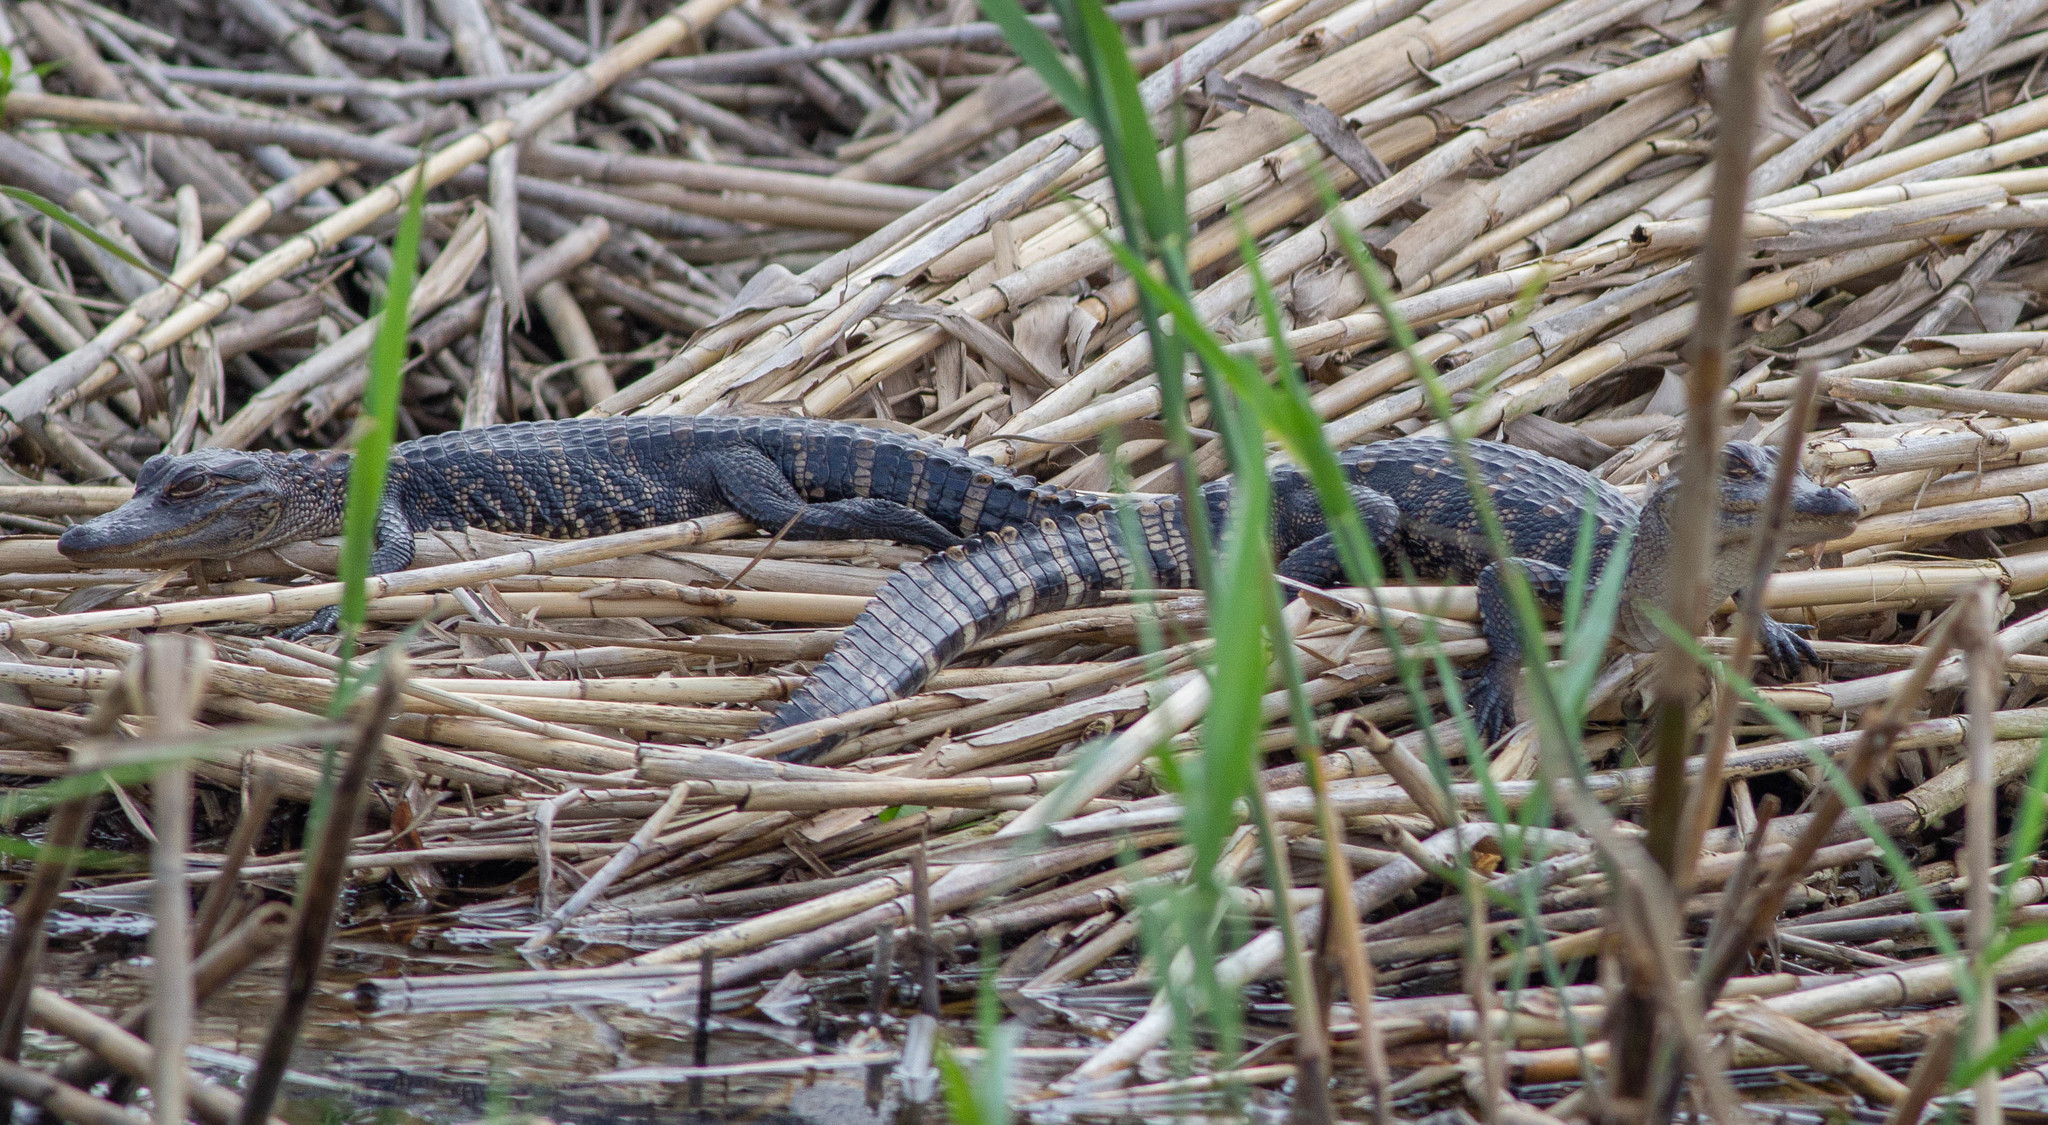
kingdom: Animalia
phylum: Chordata
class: Crocodylia
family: Alligatoridae
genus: Alligator
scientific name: Alligator mississippiensis
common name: American alligator
